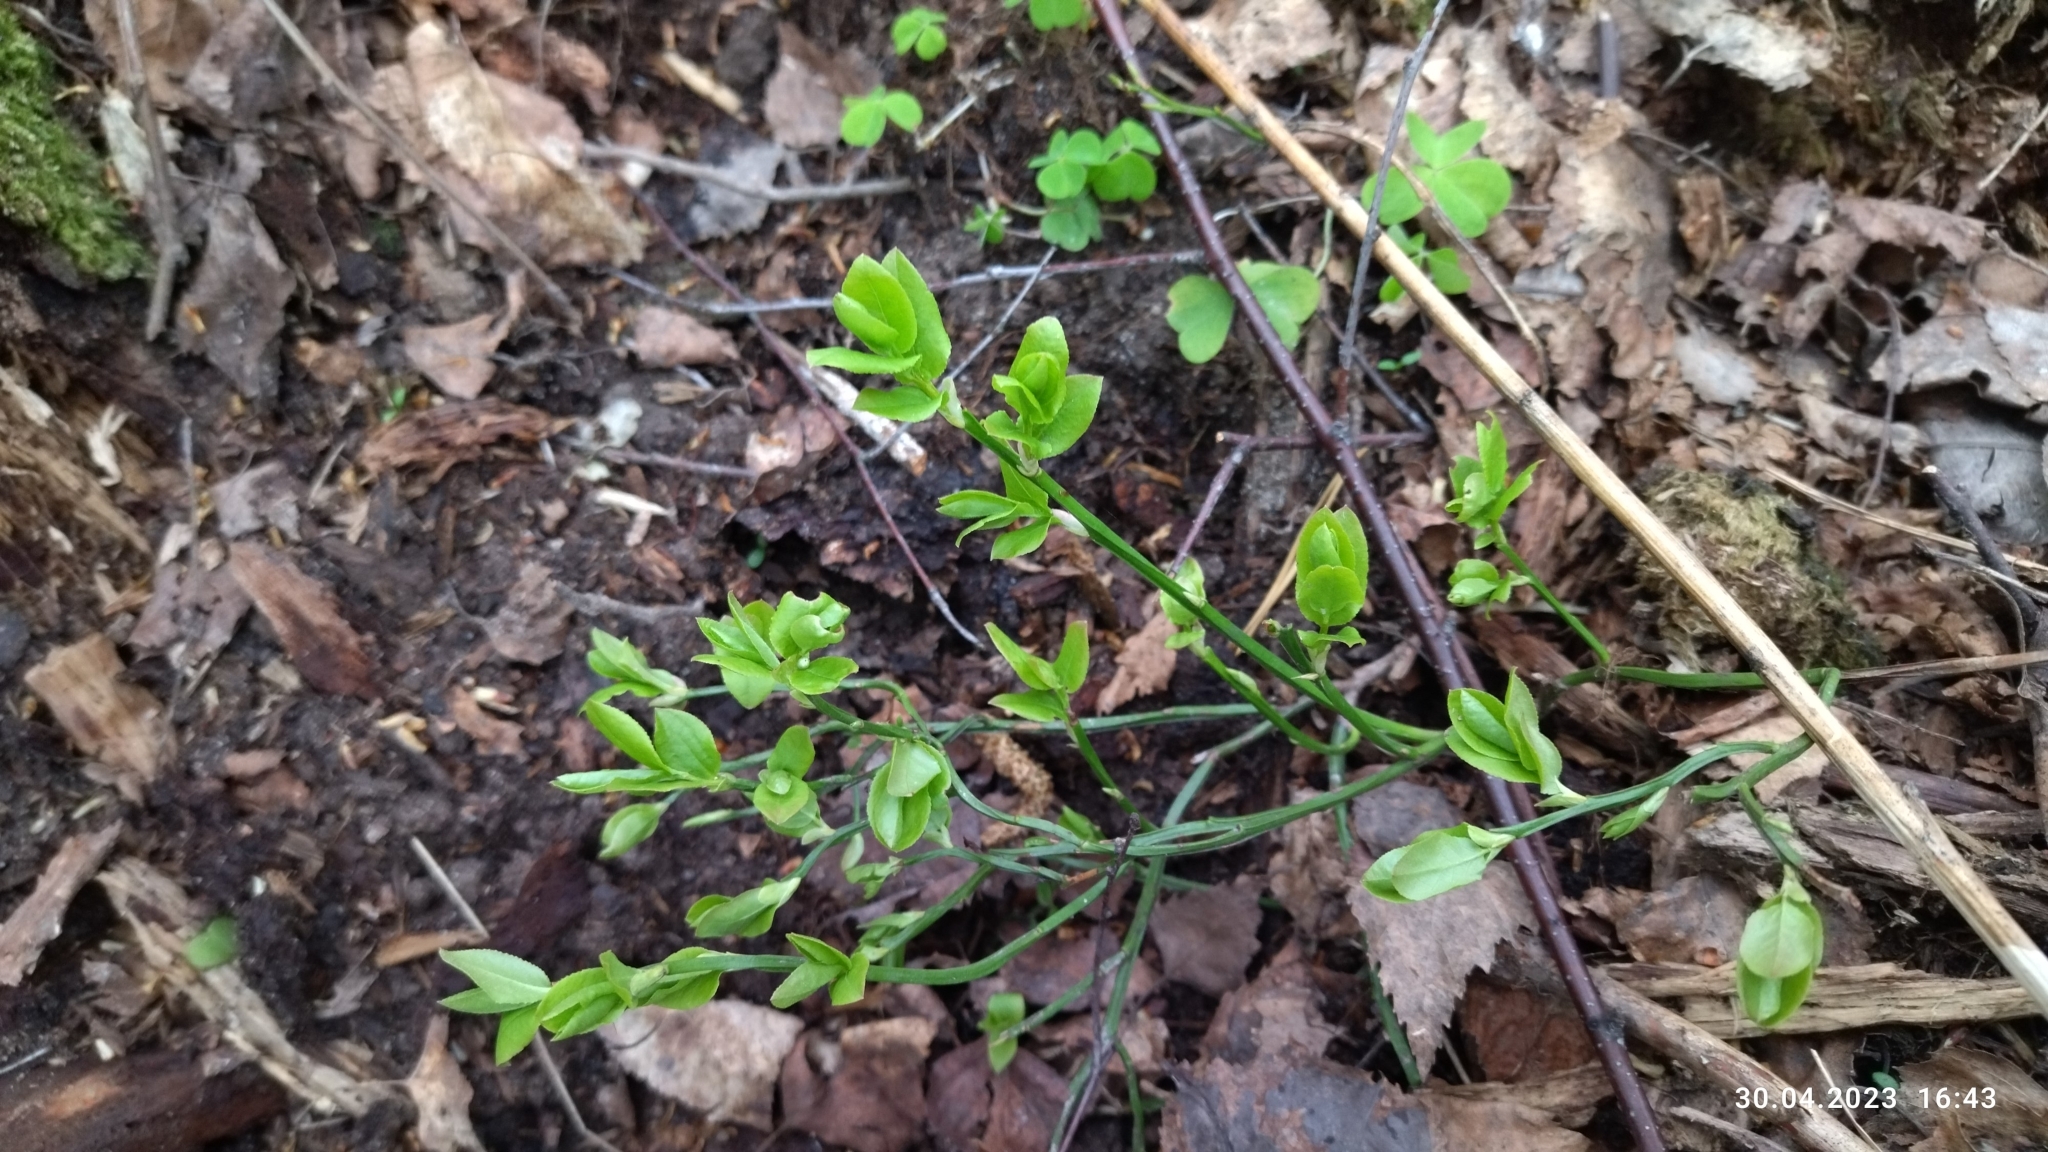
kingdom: Plantae
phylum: Tracheophyta
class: Magnoliopsida
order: Ericales
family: Ericaceae
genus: Vaccinium
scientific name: Vaccinium myrtillus
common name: Bilberry
